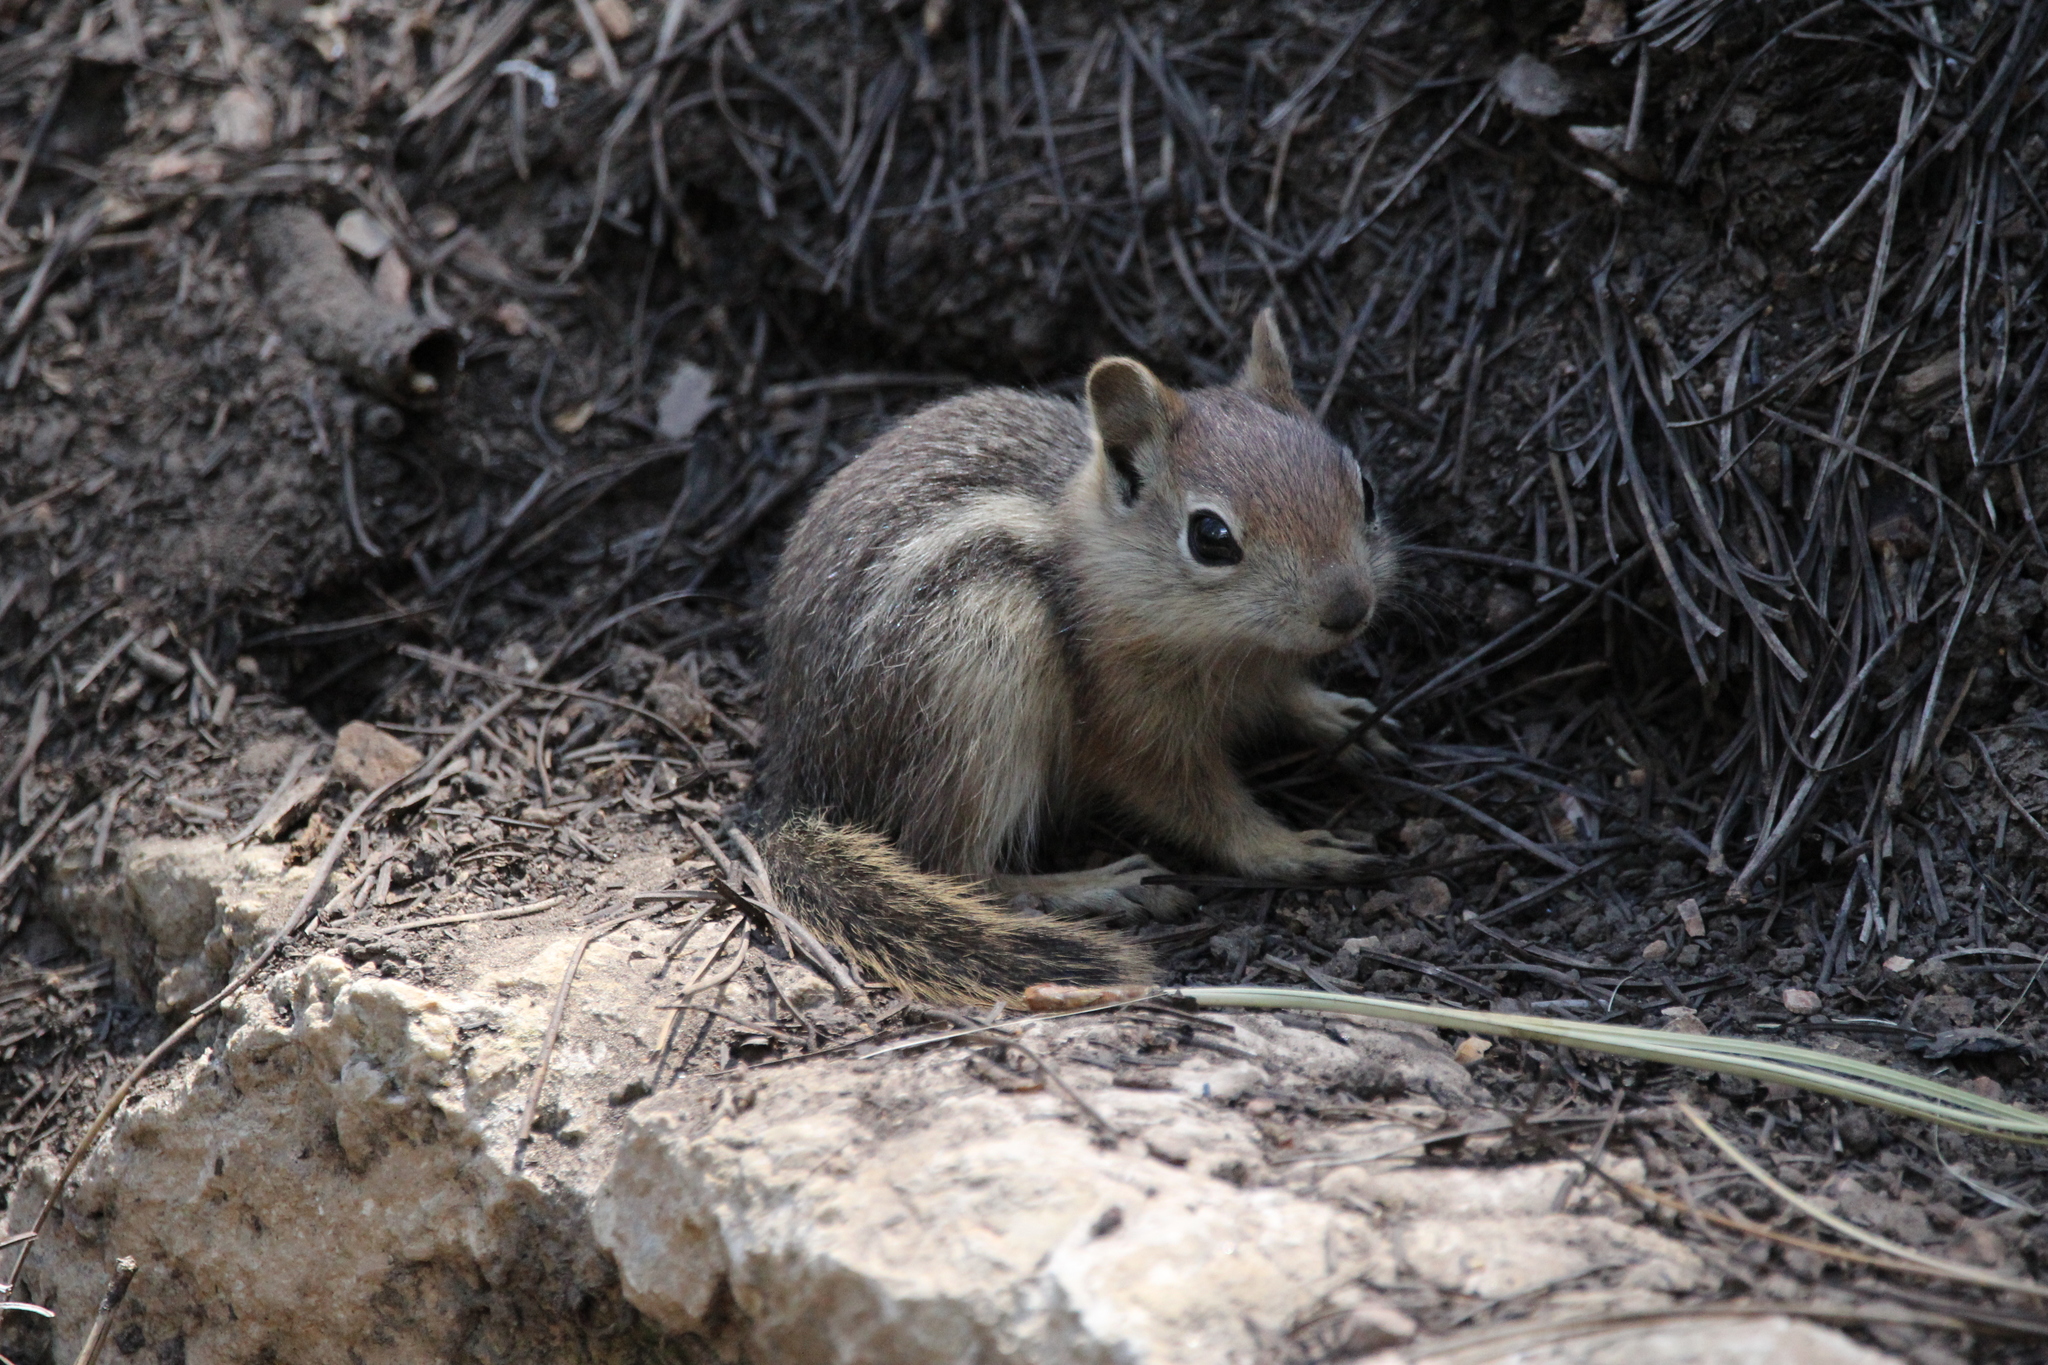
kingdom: Animalia
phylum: Chordata
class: Mammalia
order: Rodentia
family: Sciuridae
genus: Callospermophilus
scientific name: Callospermophilus lateralis
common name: Golden-mantled ground squirrel
